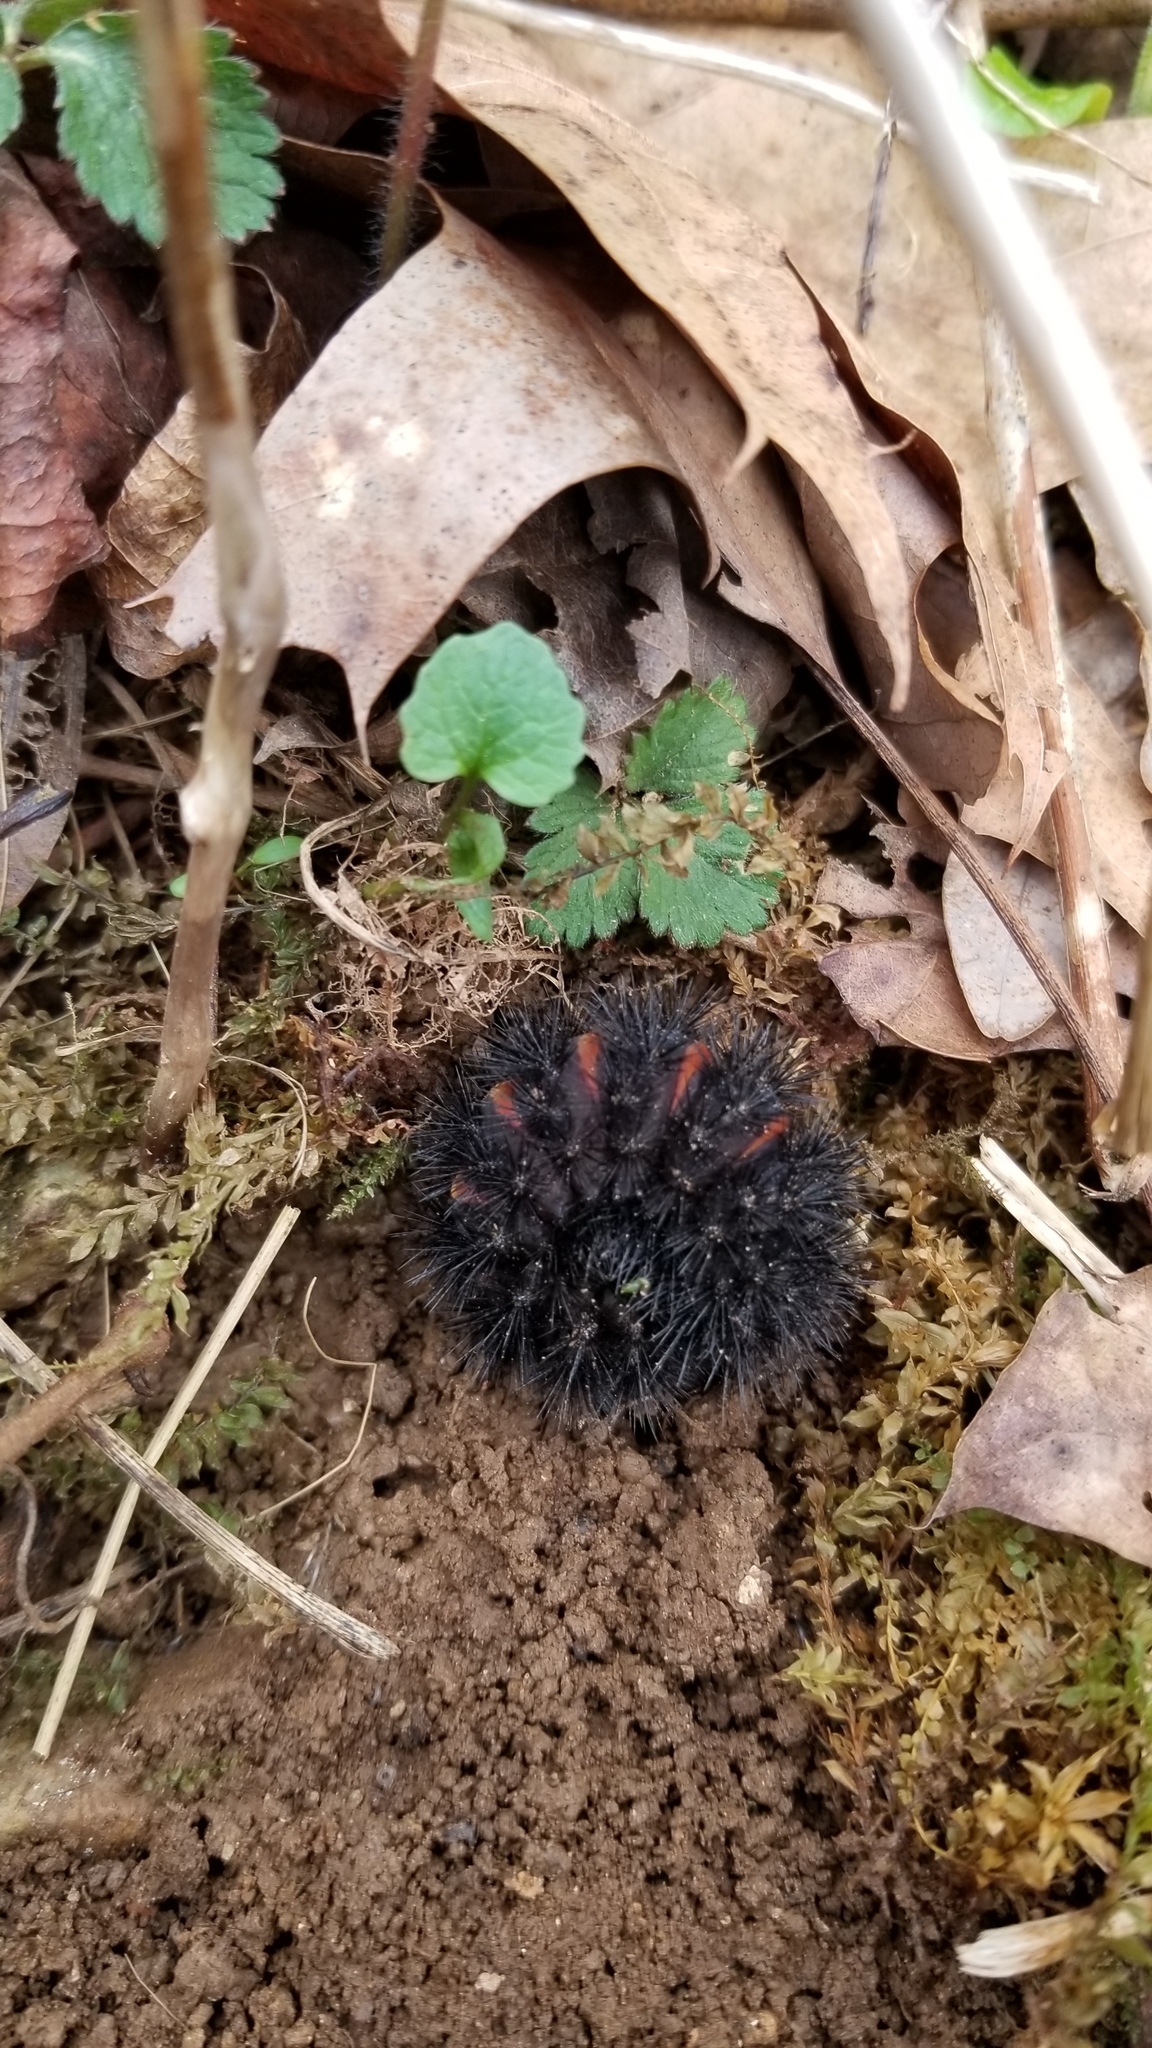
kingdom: Animalia
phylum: Arthropoda
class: Insecta
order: Lepidoptera
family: Erebidae
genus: Hypercompe
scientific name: Hypercompe scribonia
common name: Giant leopard moth
